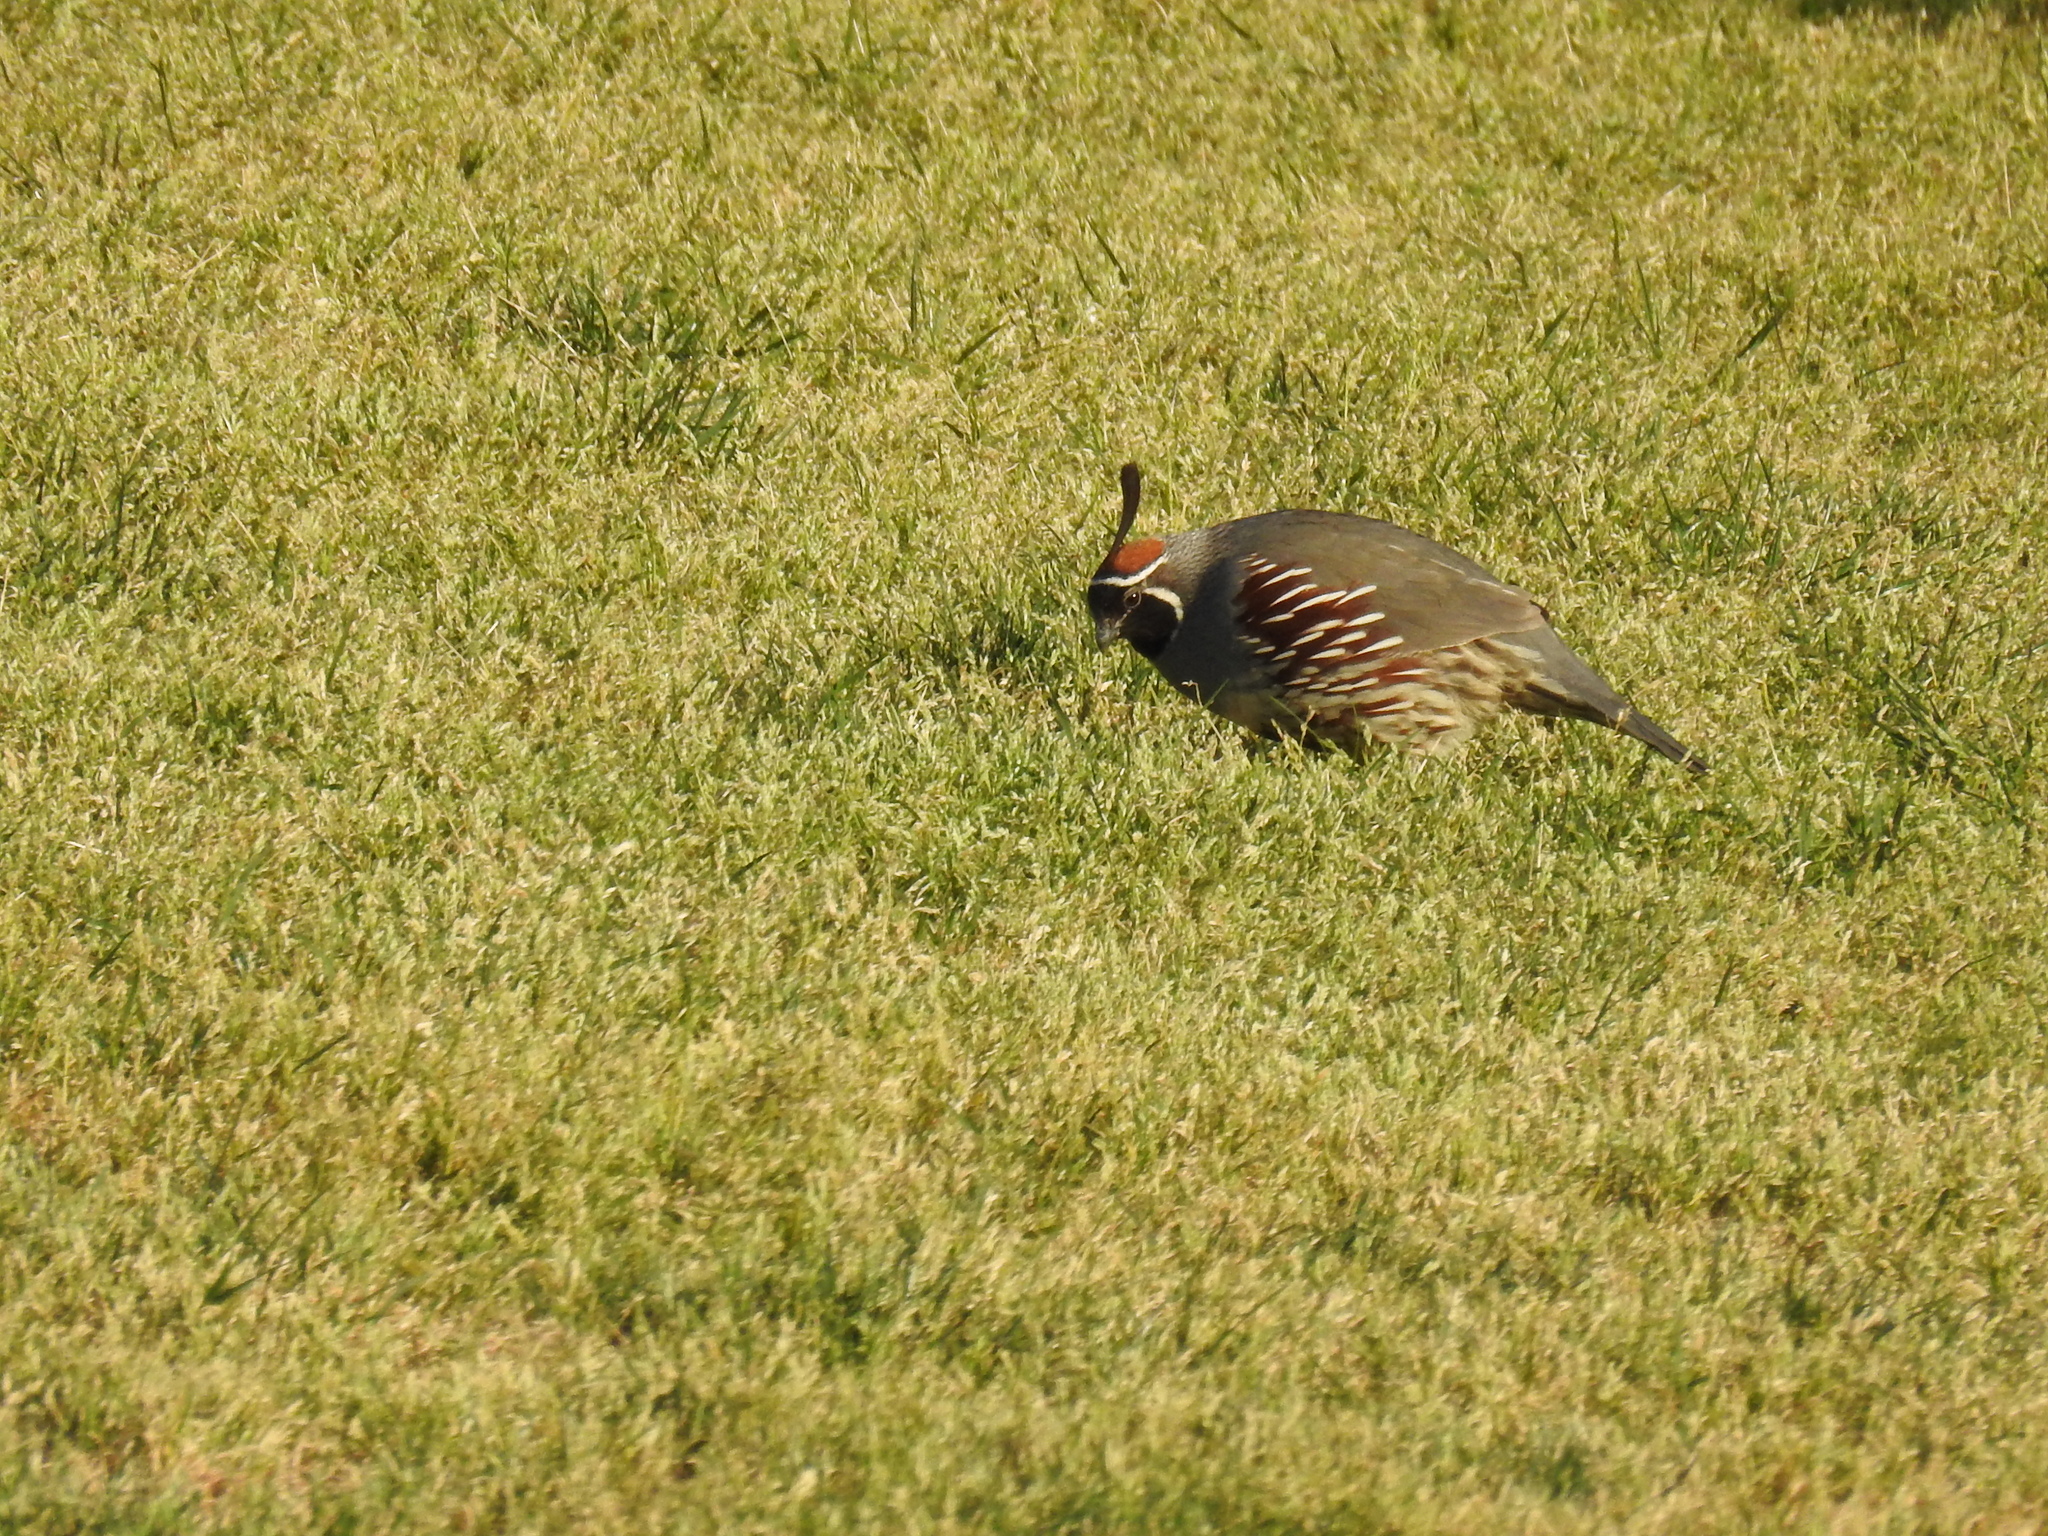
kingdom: Animalia
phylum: Chordata
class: Aves
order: Galliformes
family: Odontophoridae
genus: Callipepla
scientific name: Callipepla gambelii
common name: Gambel's quail
